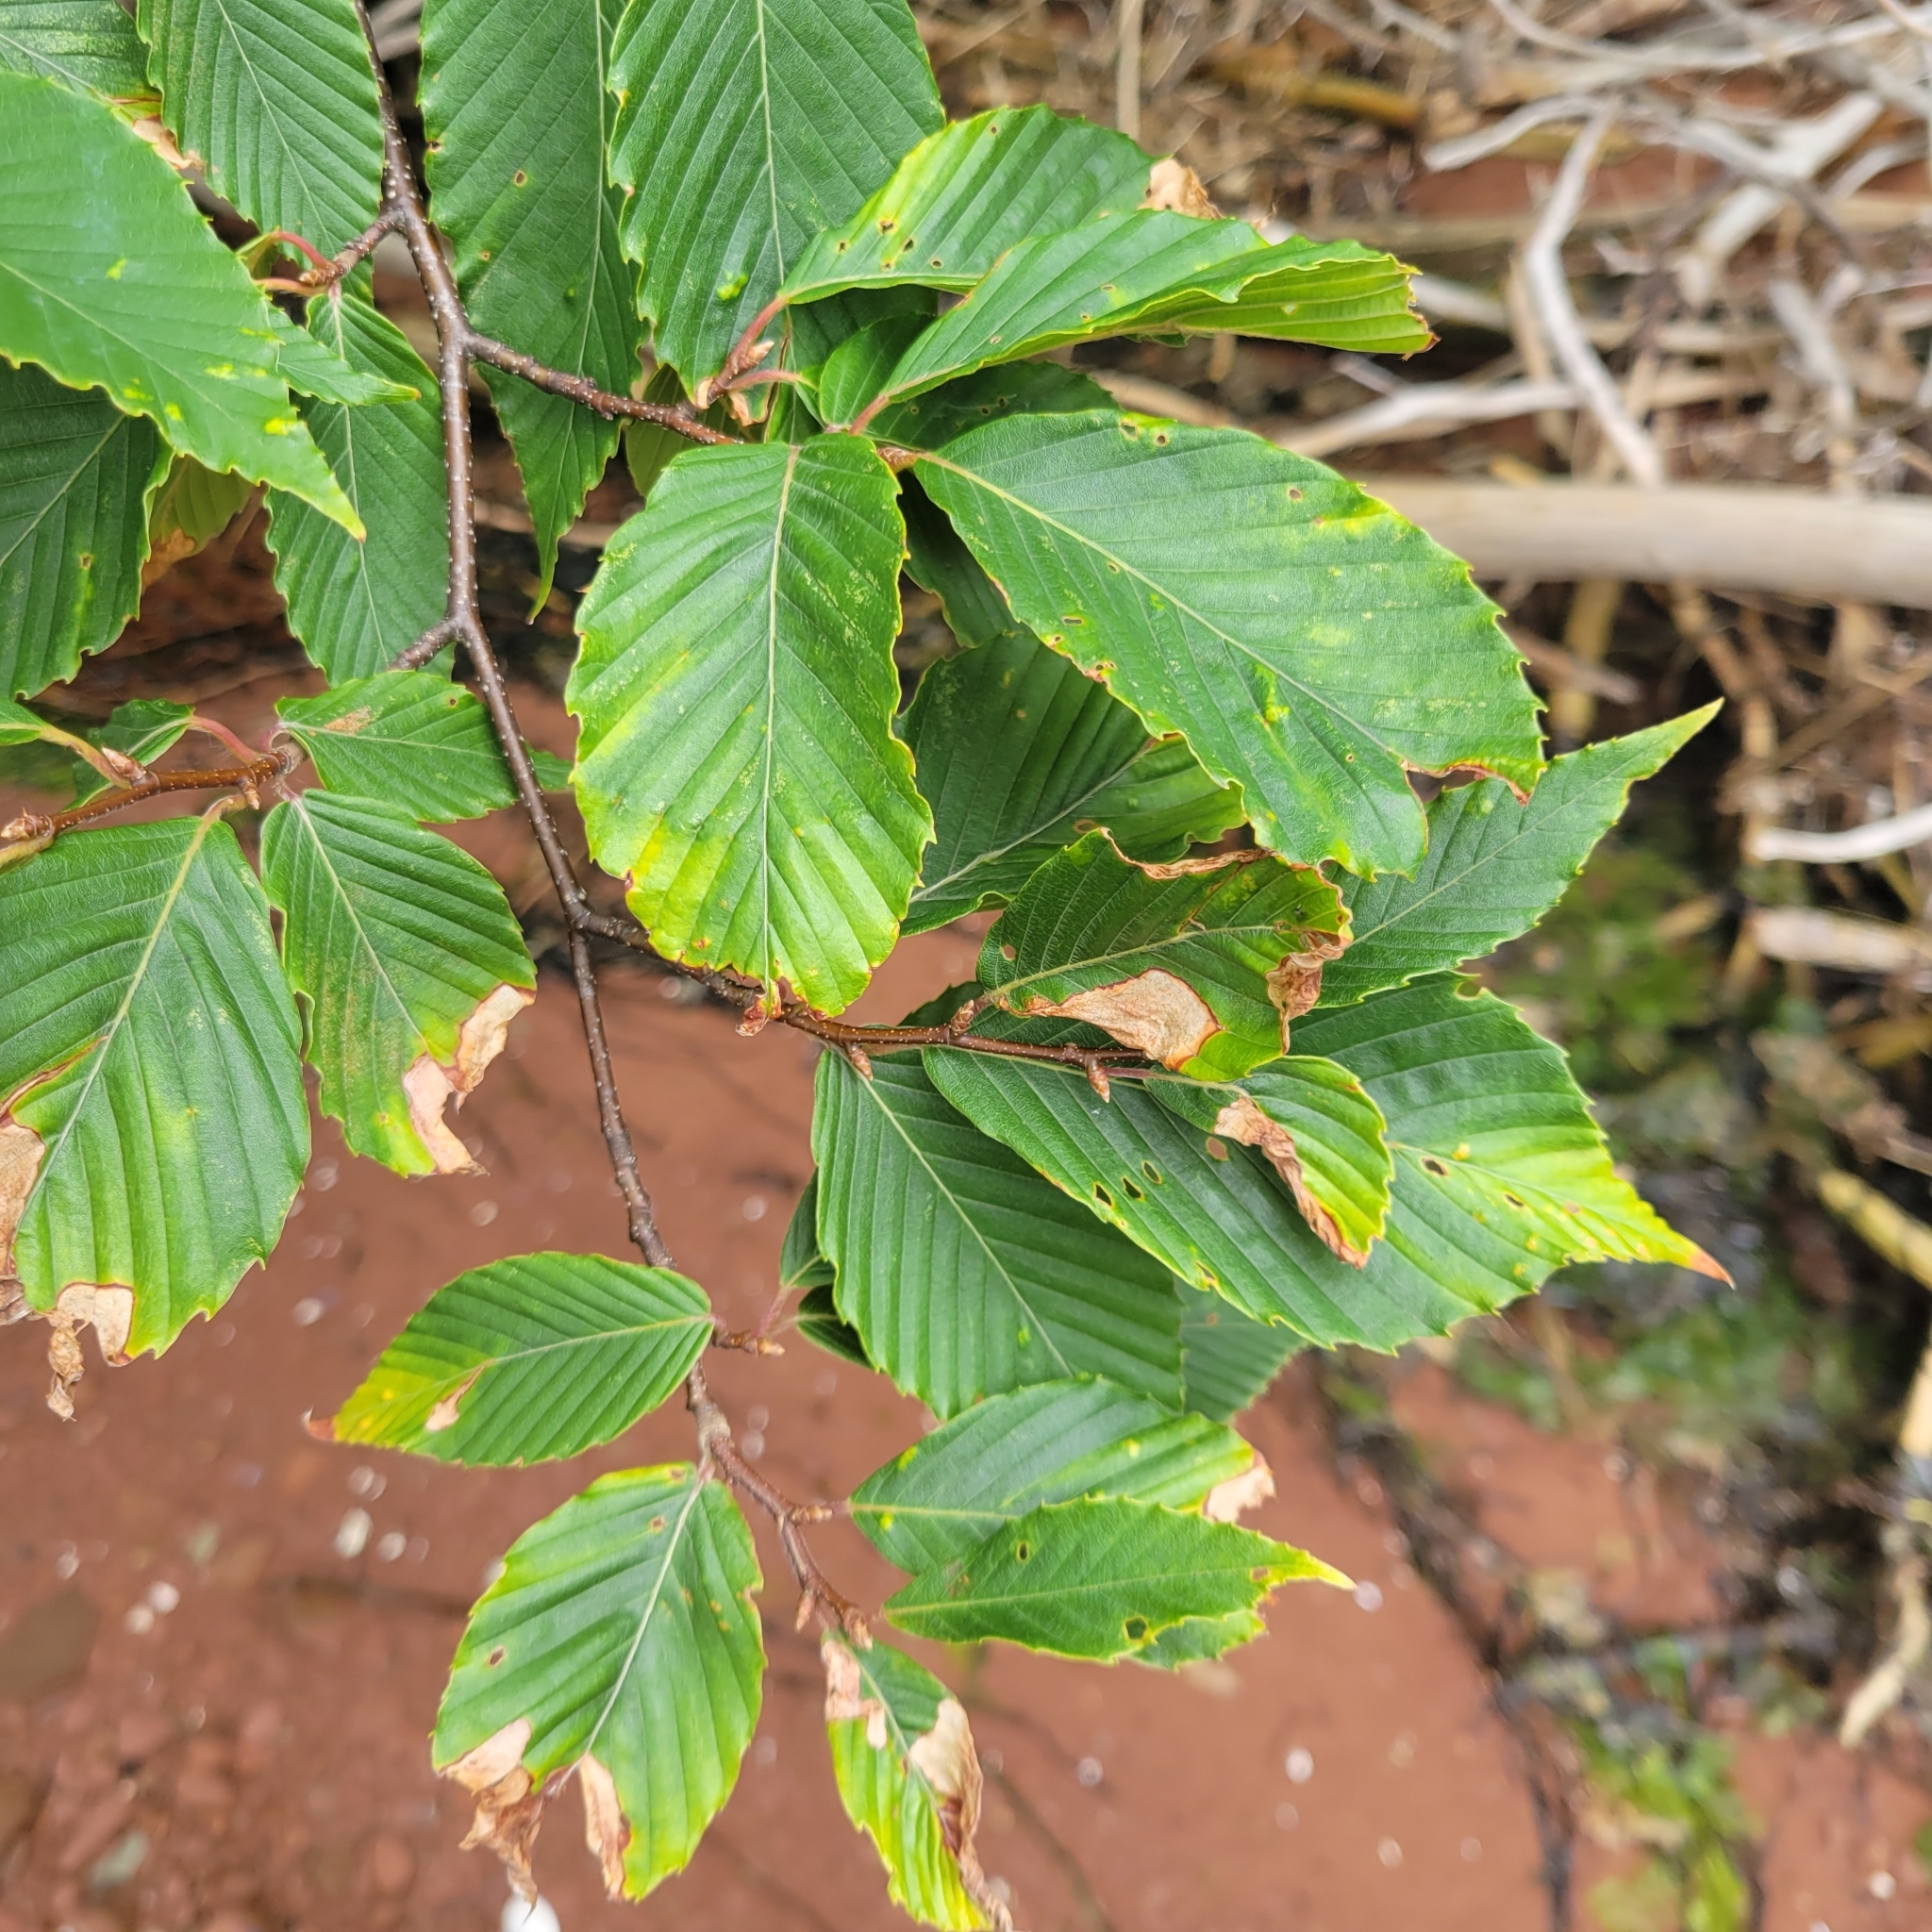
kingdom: Animalia
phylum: Arthropoda
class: Arachnida
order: Trombidiformes
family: Eriophyidae
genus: Acalitus
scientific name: Acalitus
